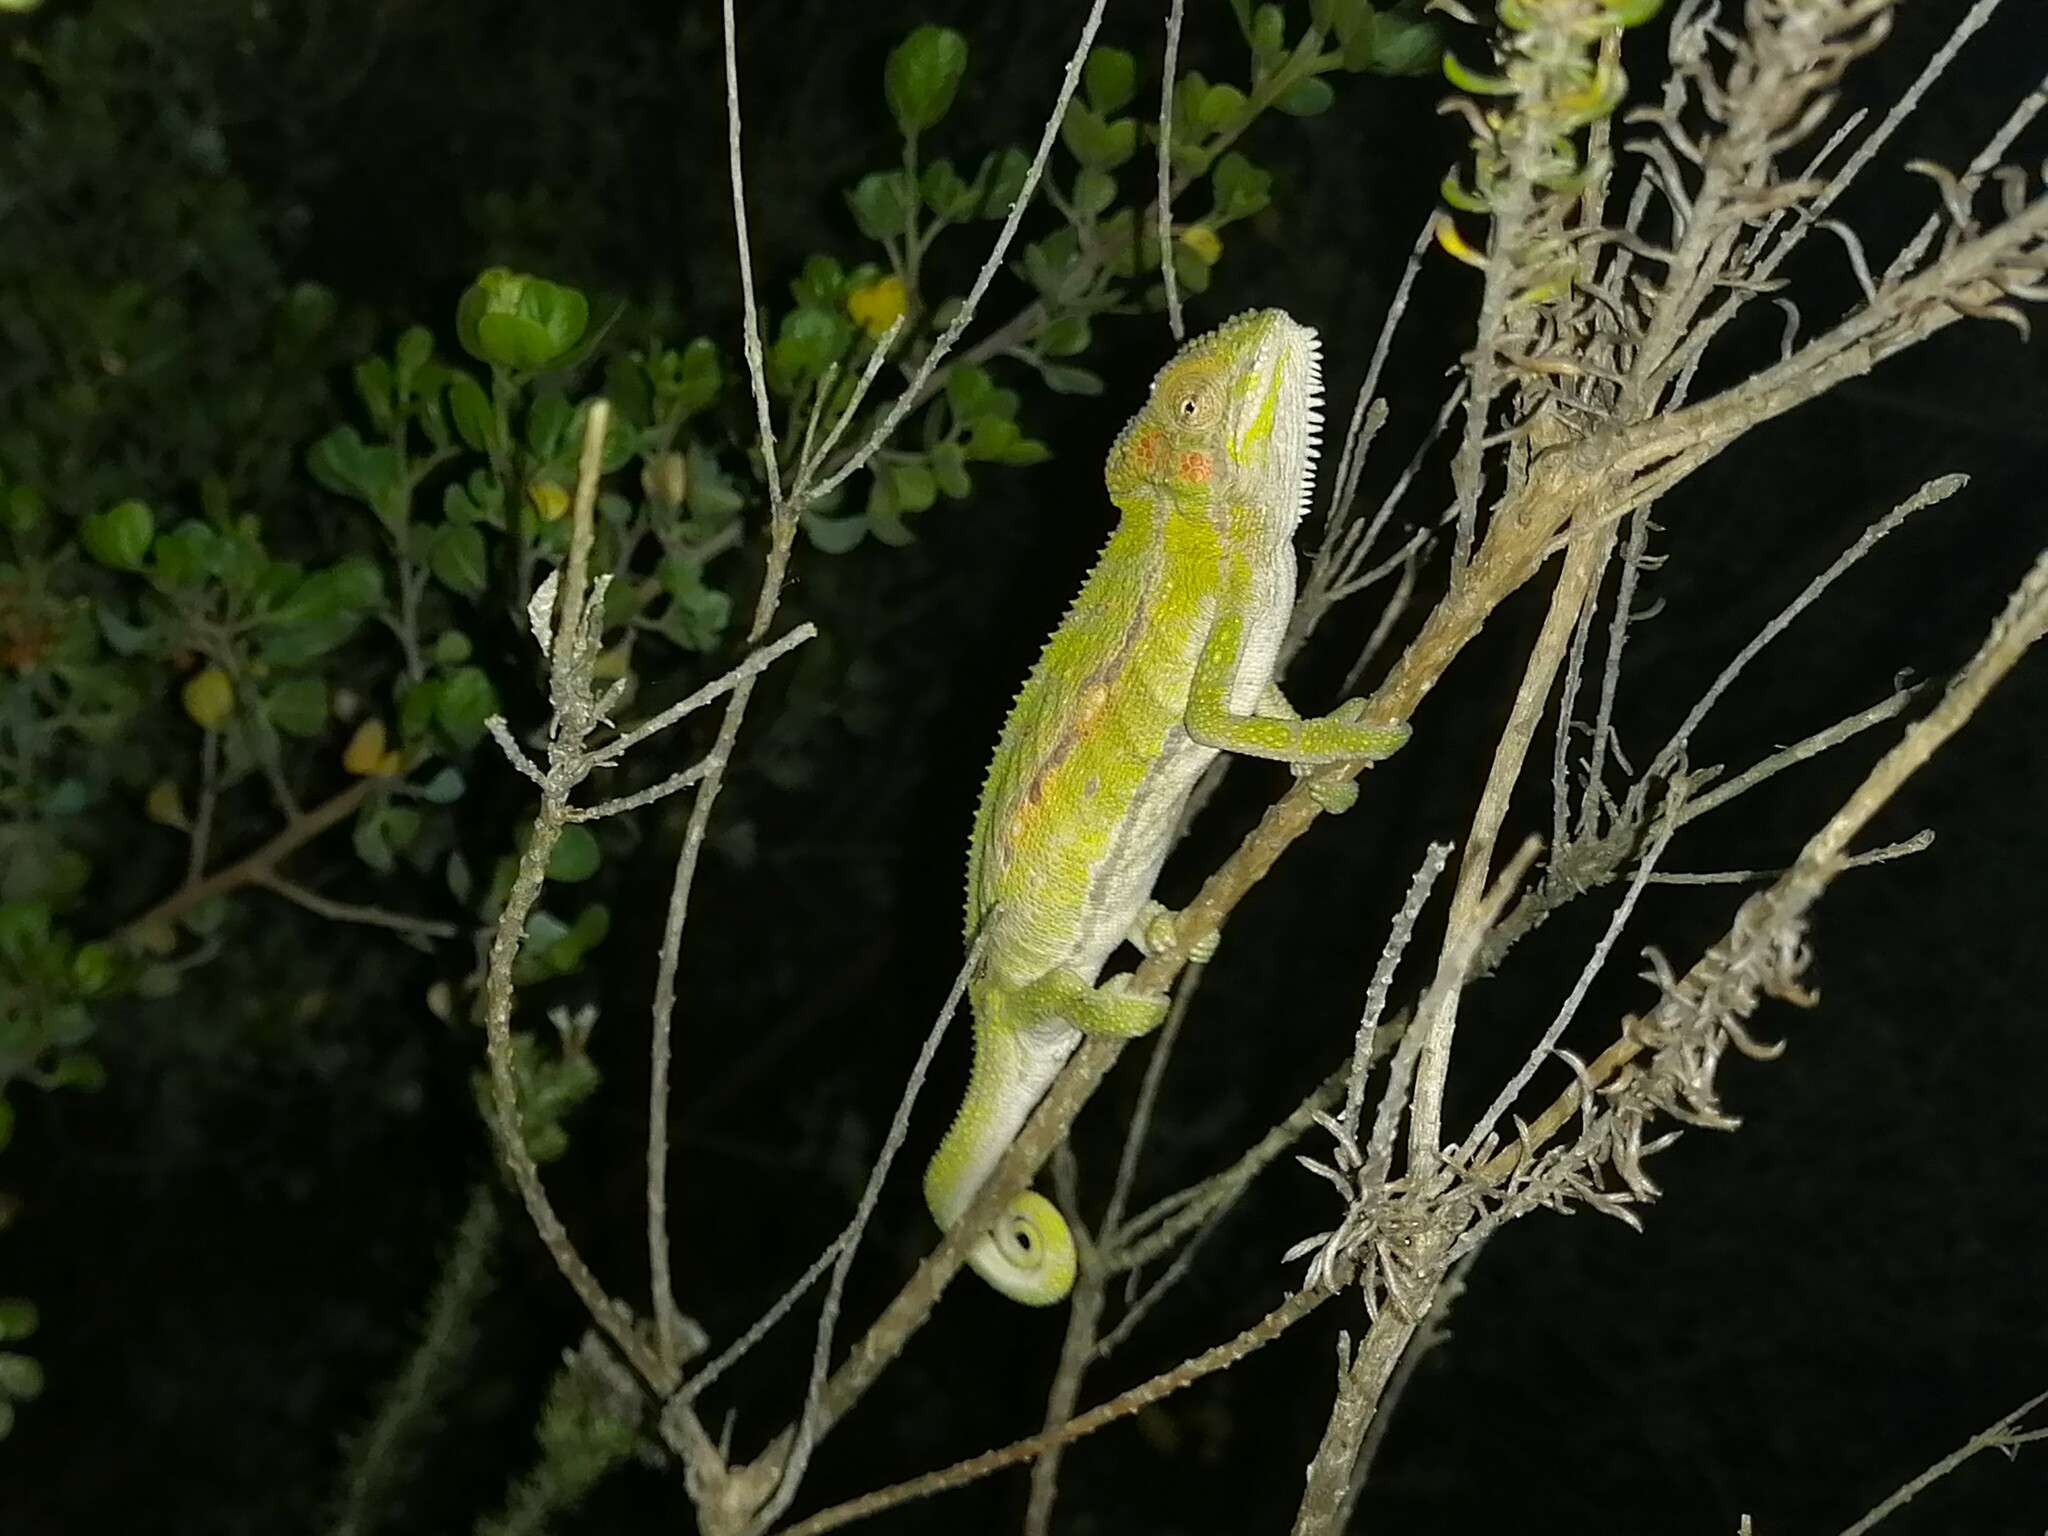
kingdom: Animalia
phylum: Chordata
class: Squamata
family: Chamaeleonidae
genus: Bradypodion
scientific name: Bradypodion pumilum
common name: Cape dwarf chameleon
